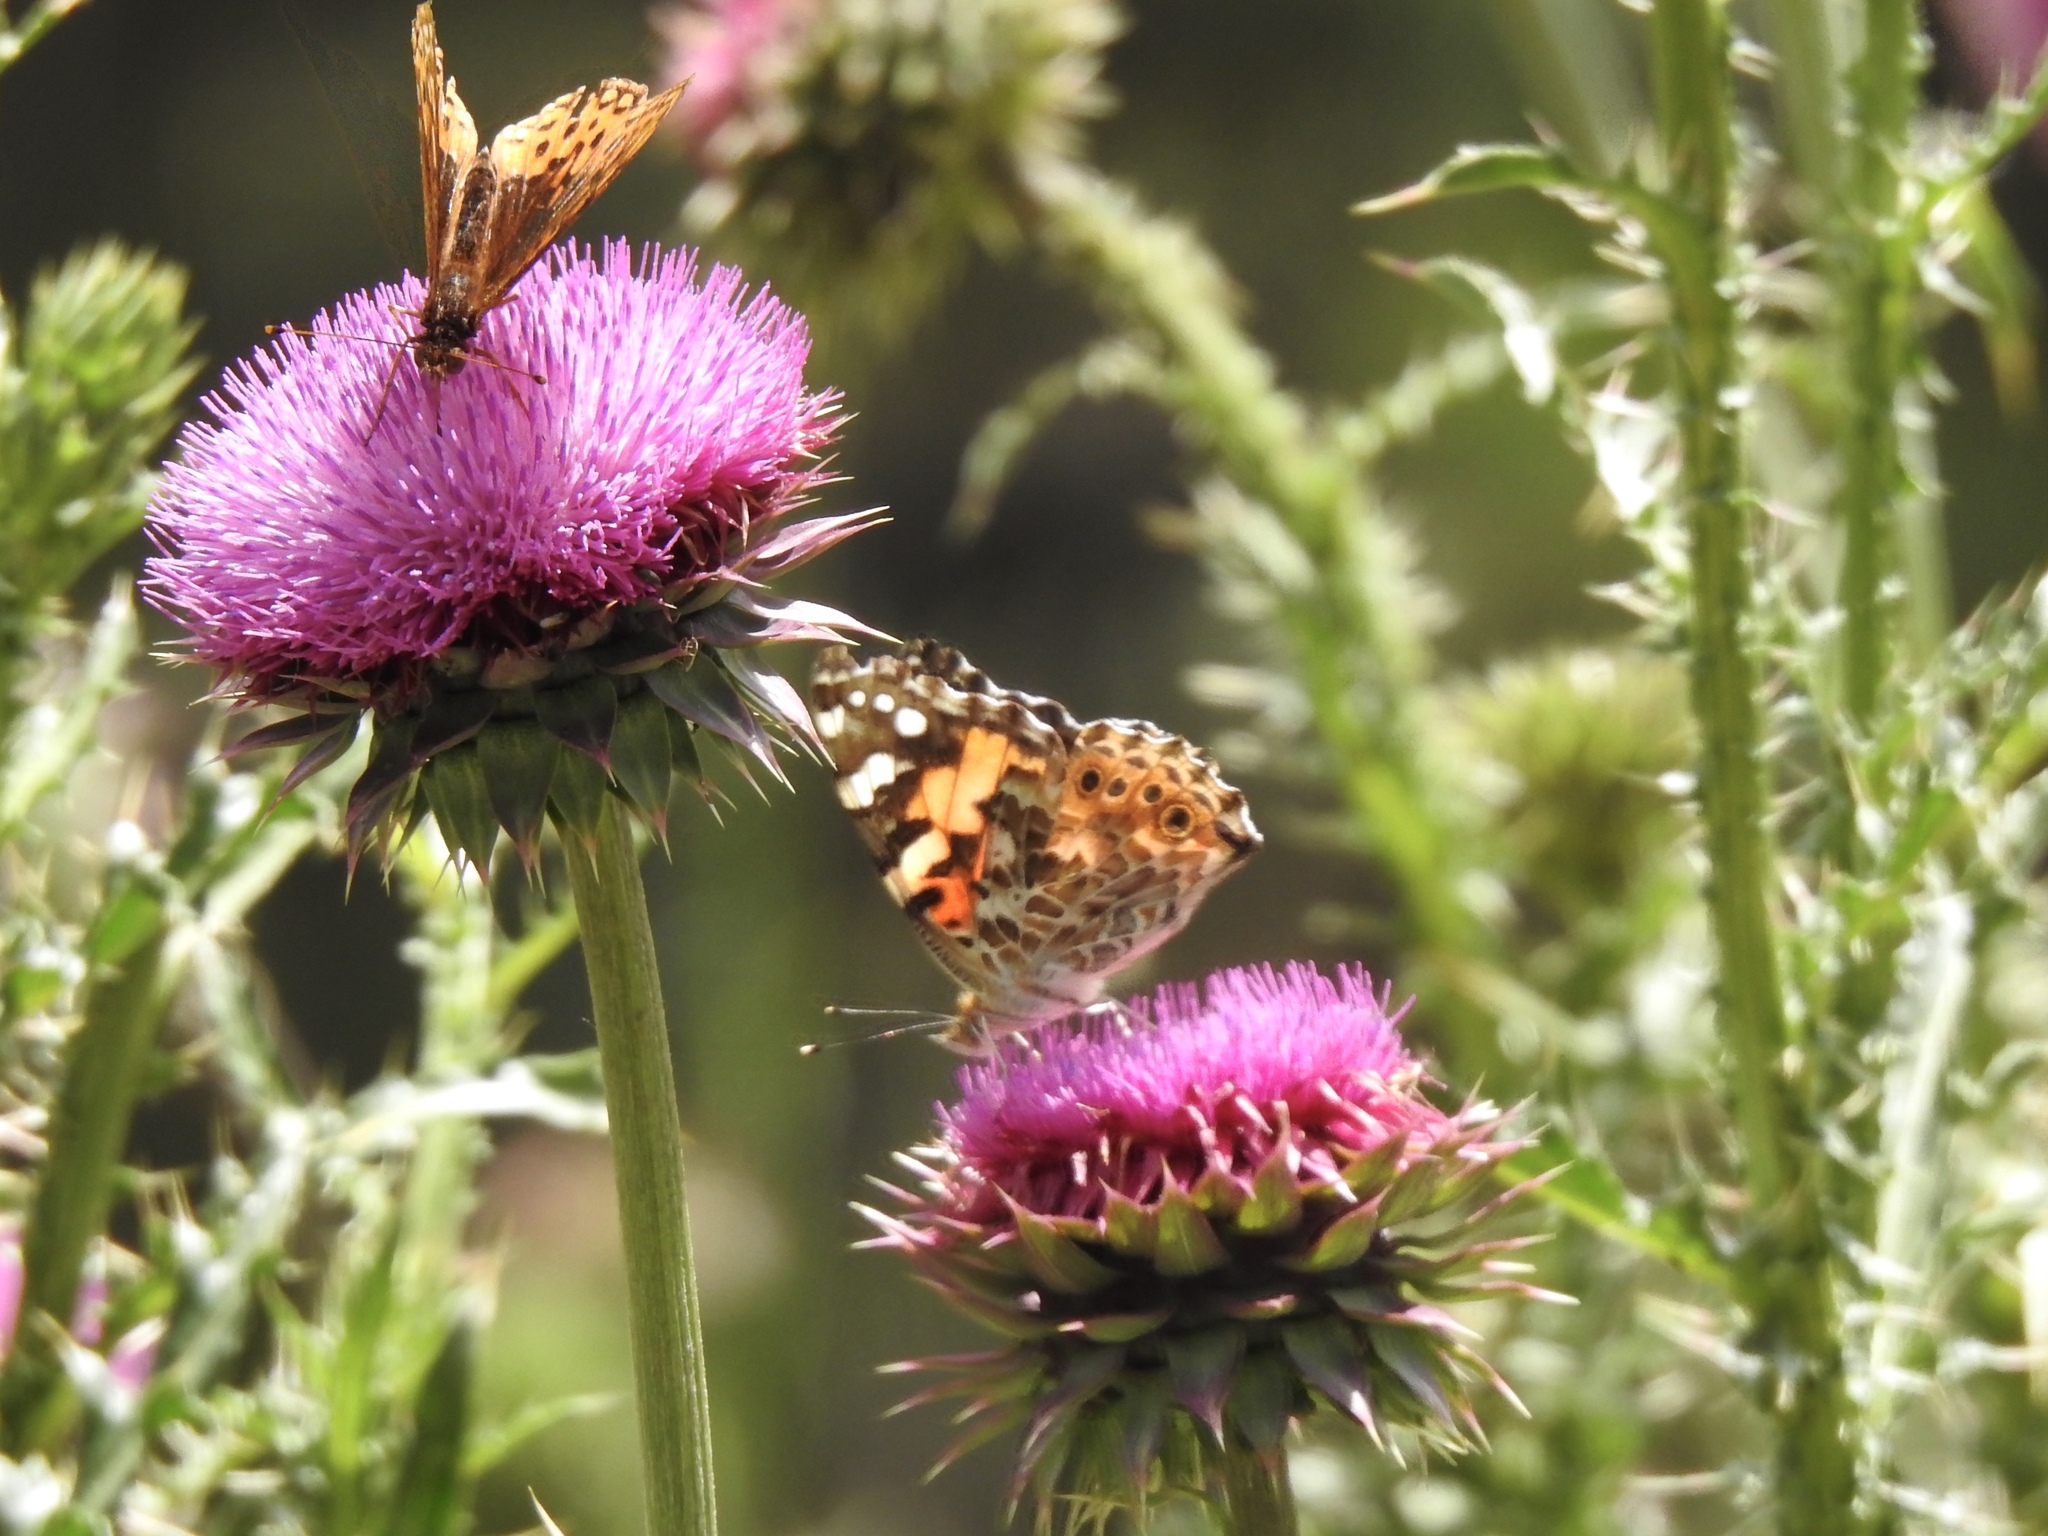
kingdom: Animalia
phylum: Arthropoda
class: Insecta
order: Lepidoptera
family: Nymphalidae
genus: Vanessa
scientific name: Vanessa cardui
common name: Painted lady
